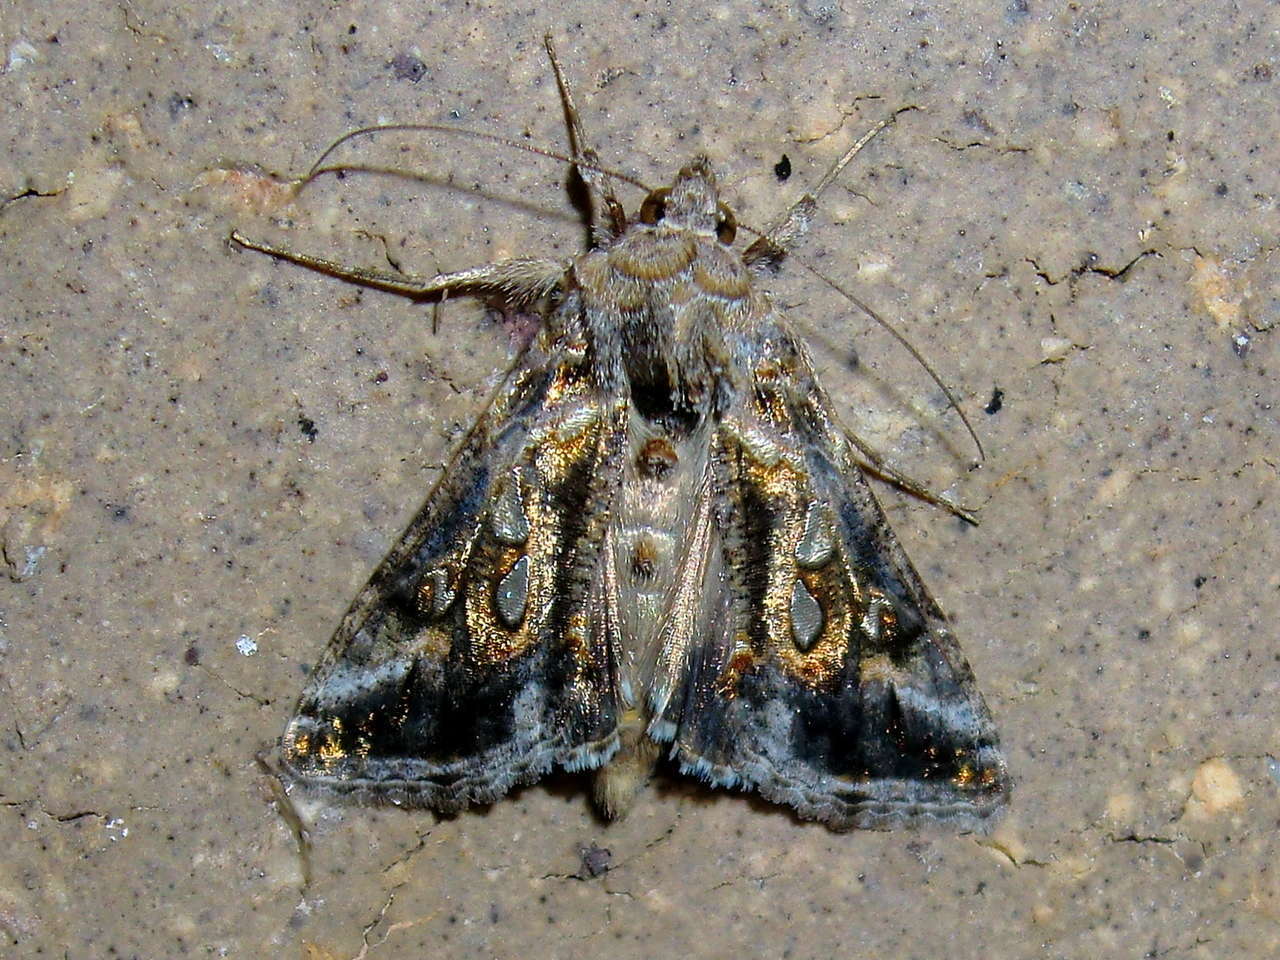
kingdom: Animalia
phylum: Arthropoda
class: Insecta
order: Lepidoptera
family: Noctuidae
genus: Chrysodeixis
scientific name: Chrysodeixis argentifera
